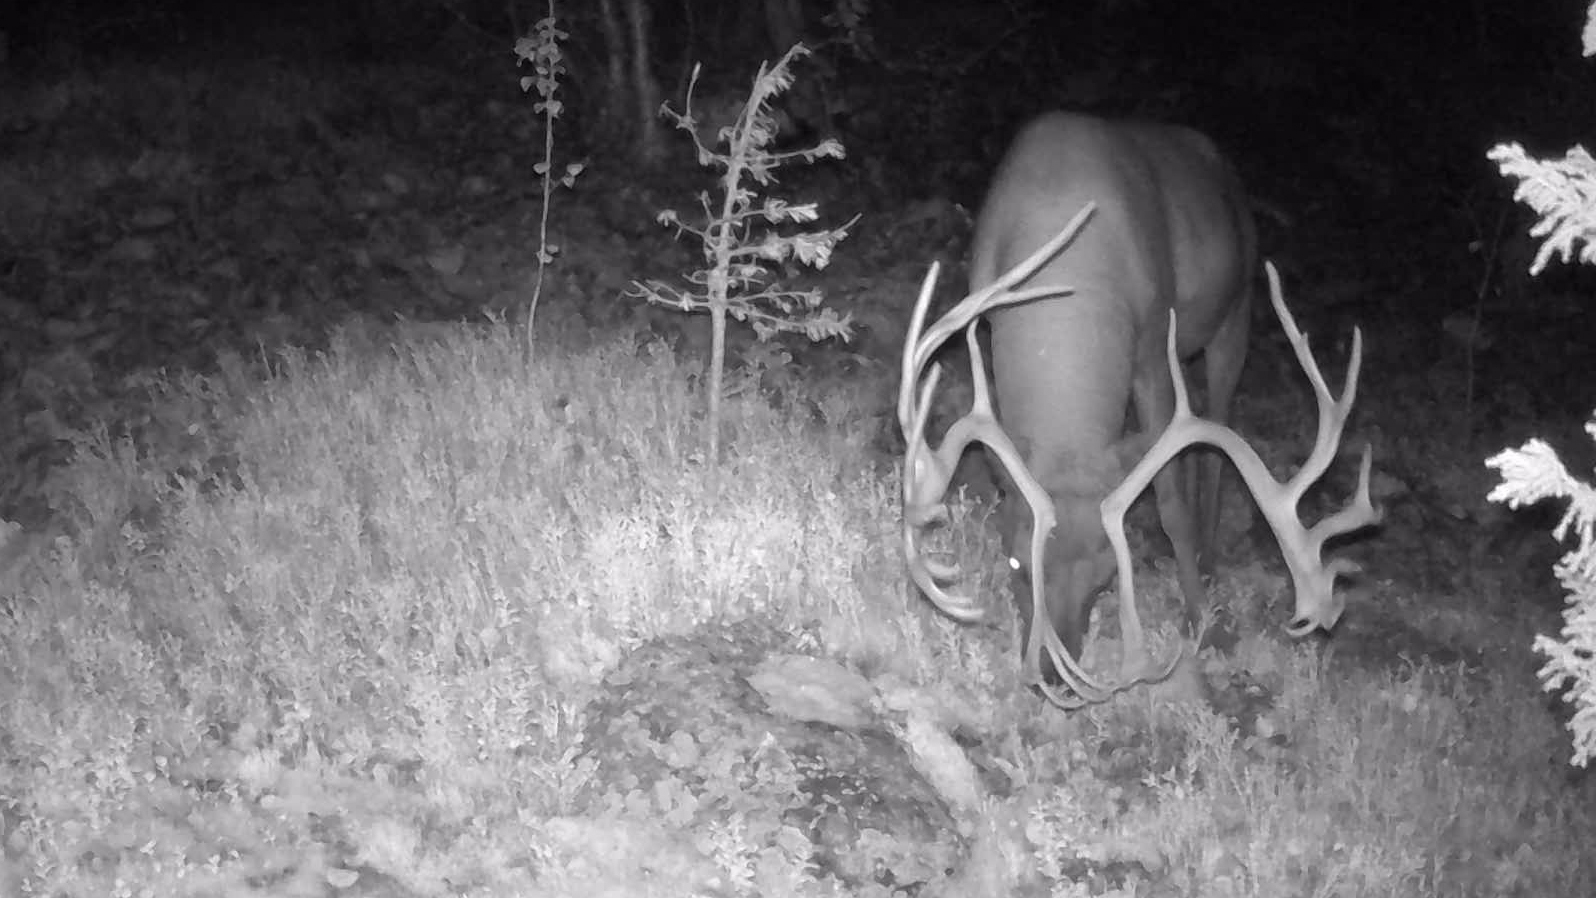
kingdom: Animalia
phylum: Chordata
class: Mammalia
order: Artiodactyla
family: Cervidae
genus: Rangifer
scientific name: Rangifer tarandus
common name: Reindeer
